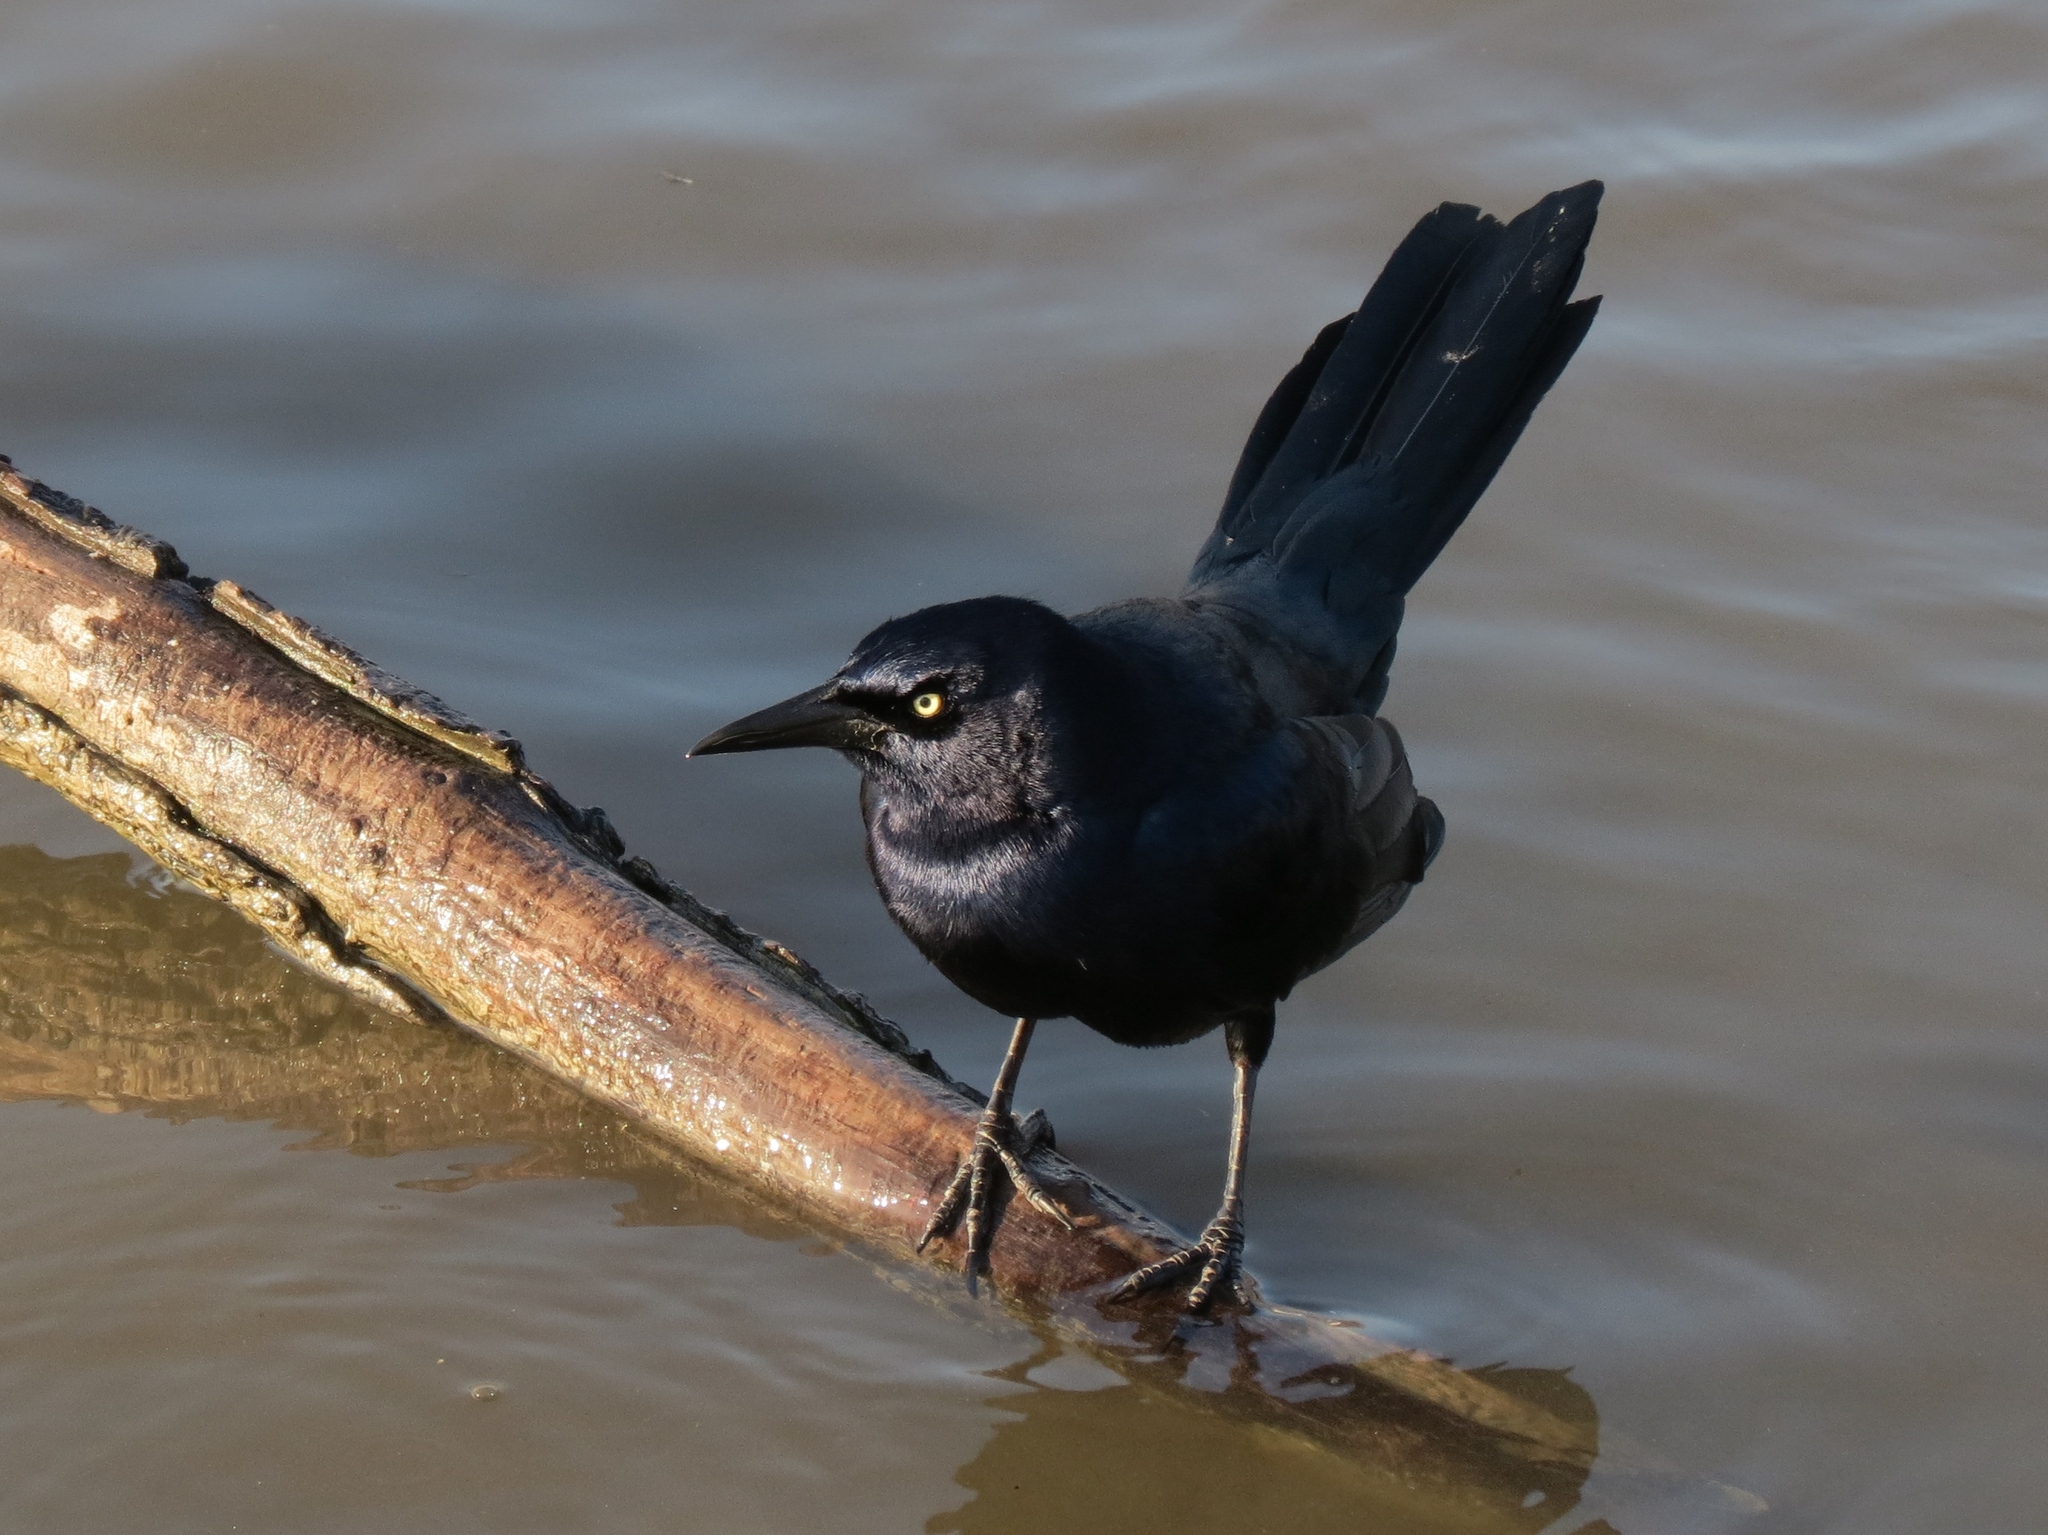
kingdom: Animalia
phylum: Chordata
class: Aves
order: Passeriformes
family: Icteridae
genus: Quiscalus
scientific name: Quiscalus mexicanus
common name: Great-tailed grackle
